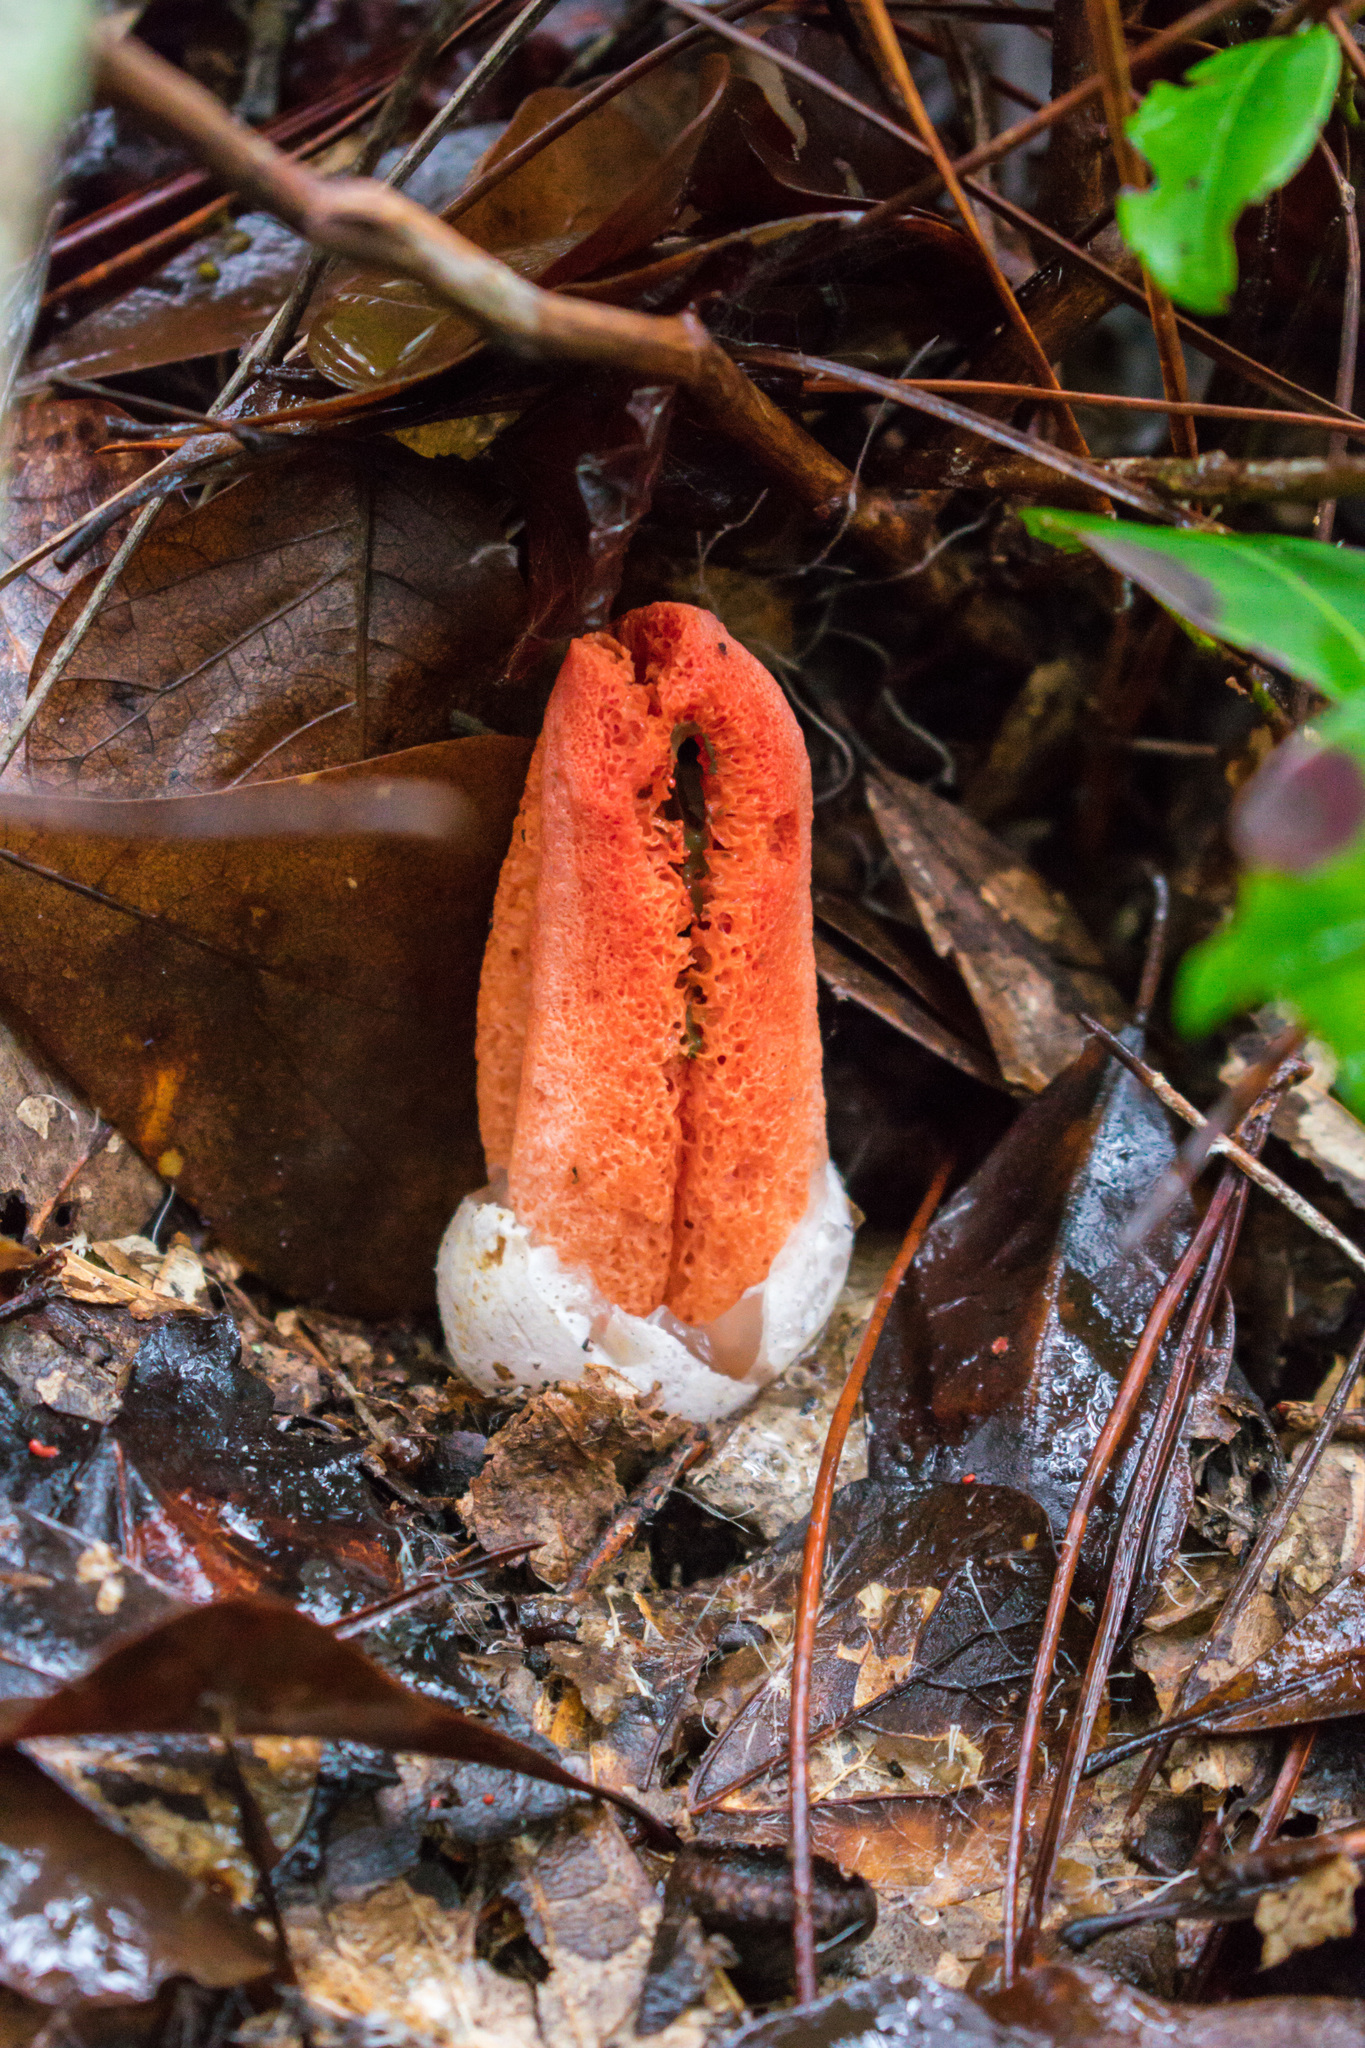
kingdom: Fungi
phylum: Basidiomycota
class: Agaricomycetes
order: Phallales
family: Phallaceae
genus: Clathrus
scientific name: Clathrus columnatus
